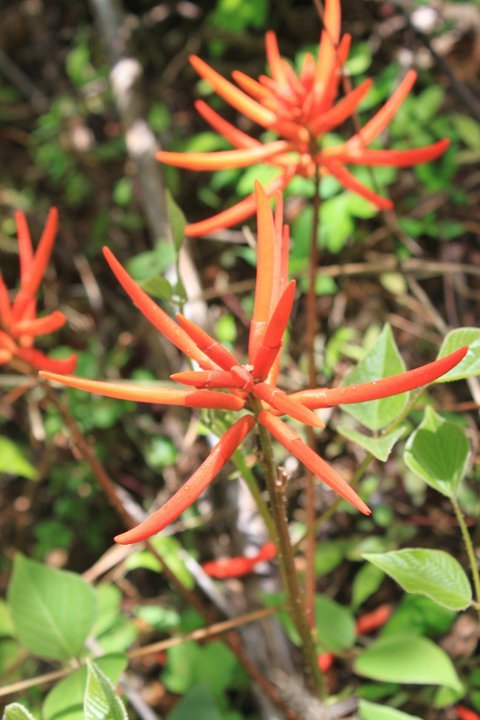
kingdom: Plantae
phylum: Tracheophyta
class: Magnoliopsida
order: Fabales
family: Fabaceae
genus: Erythrina
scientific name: Erythrina leptorhiza
